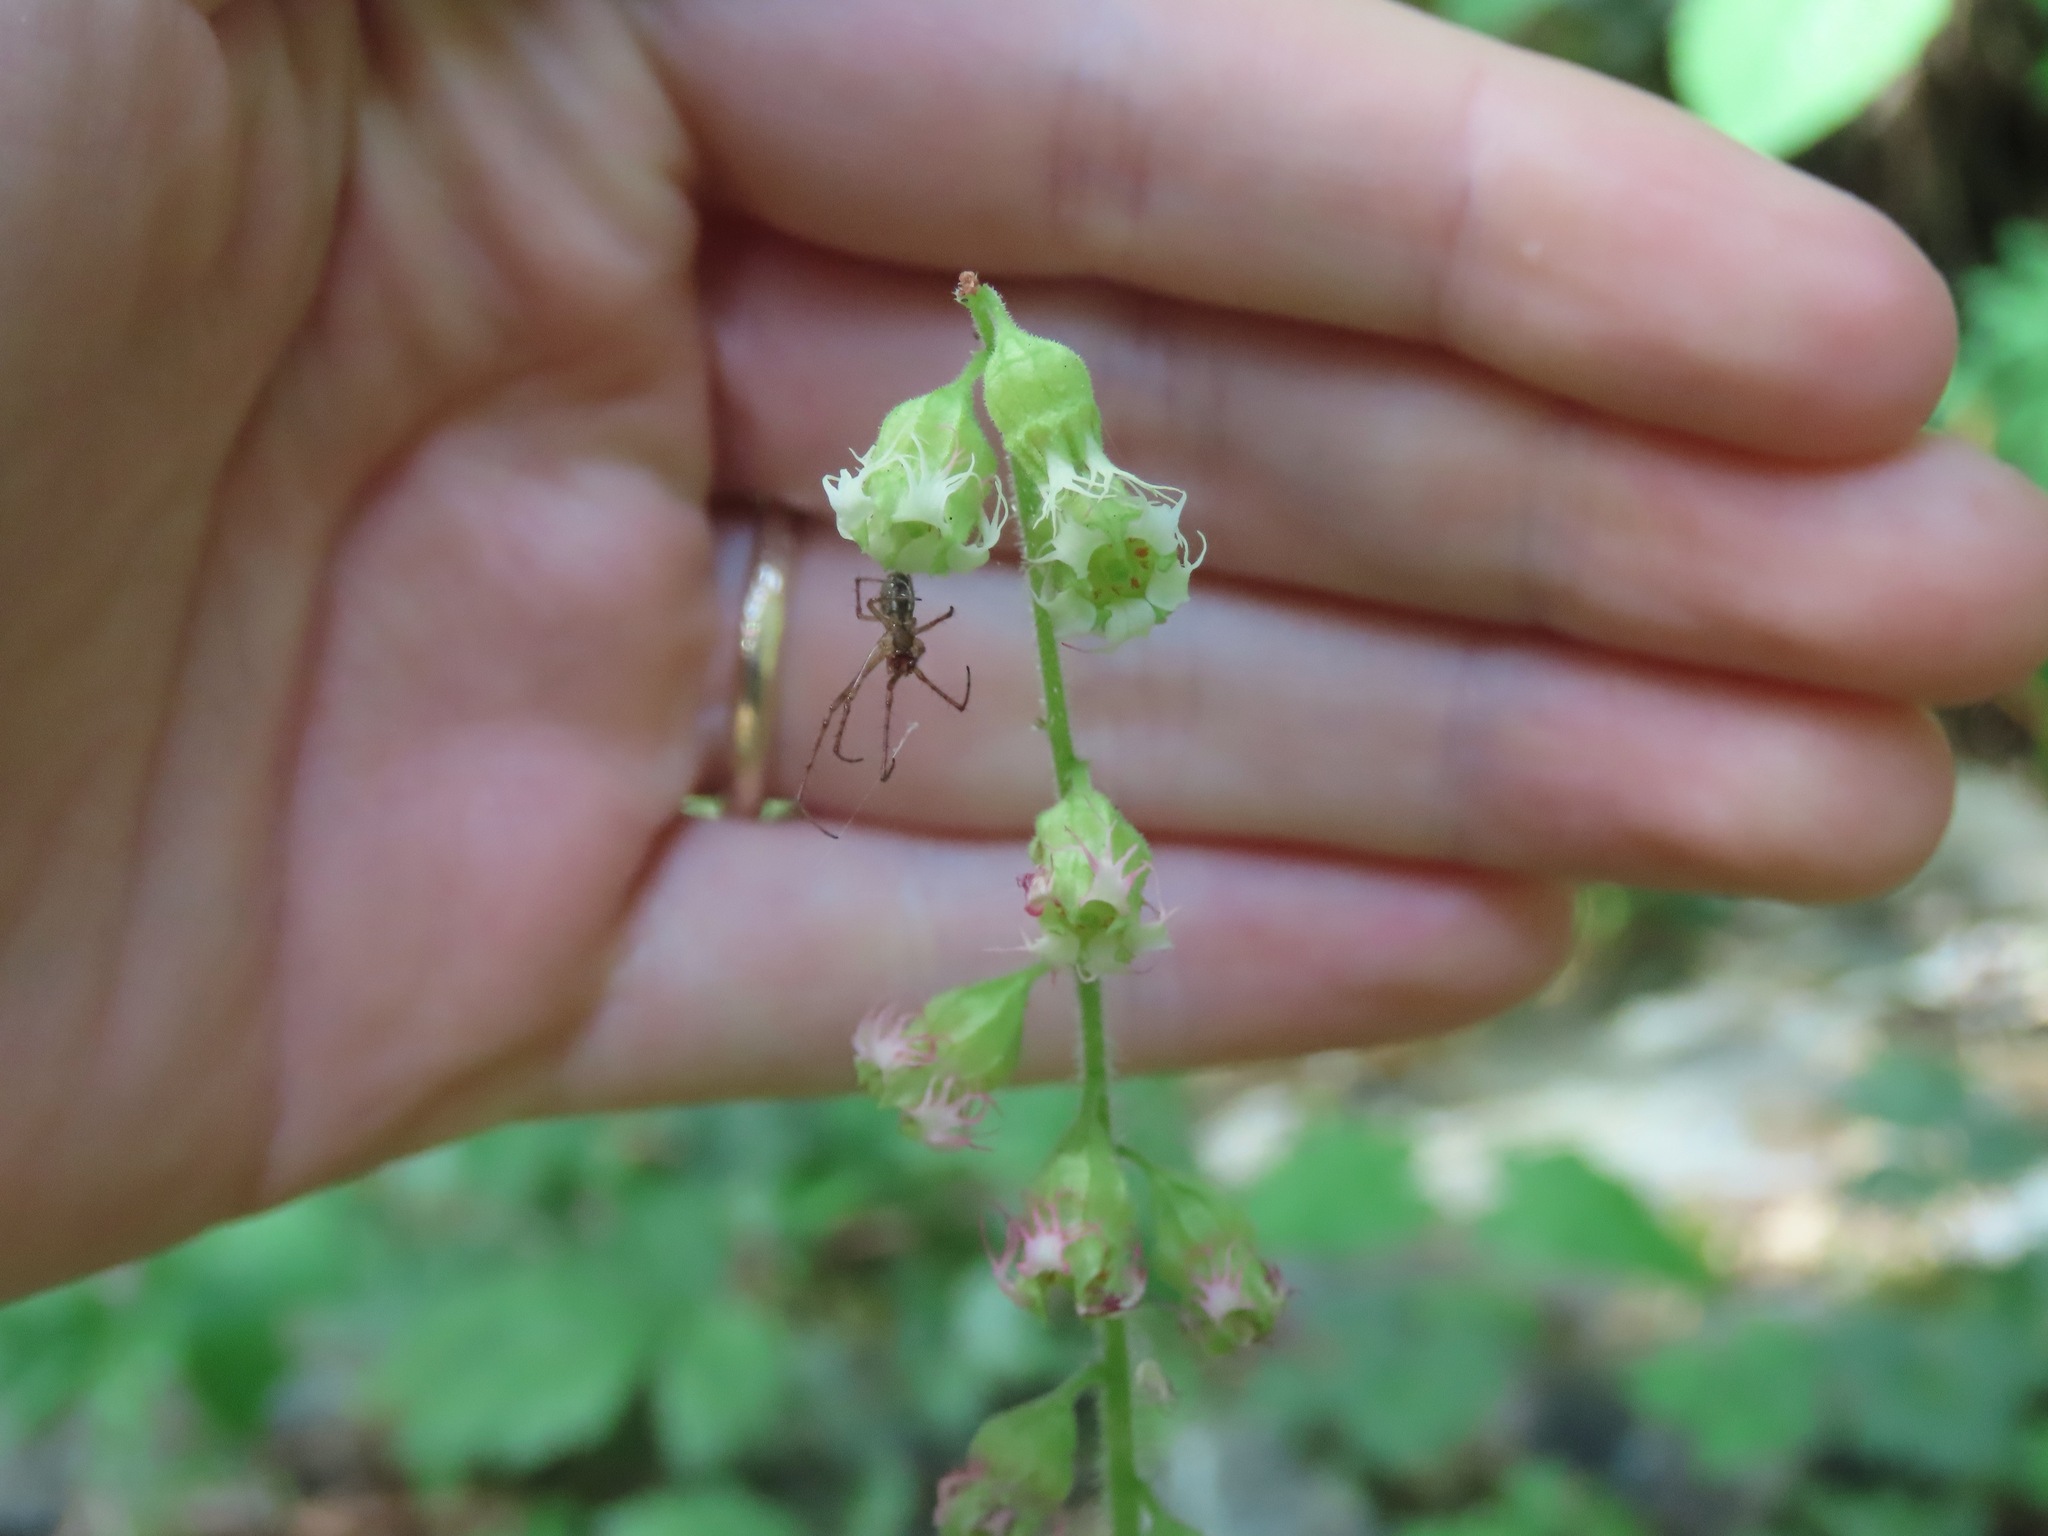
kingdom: Plantae
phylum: Tracheophyta
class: Magnoliopsida
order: Saxifragales
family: Saxifragaceae
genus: Tellima
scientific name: Tellima grandiflora
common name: Fringecups
